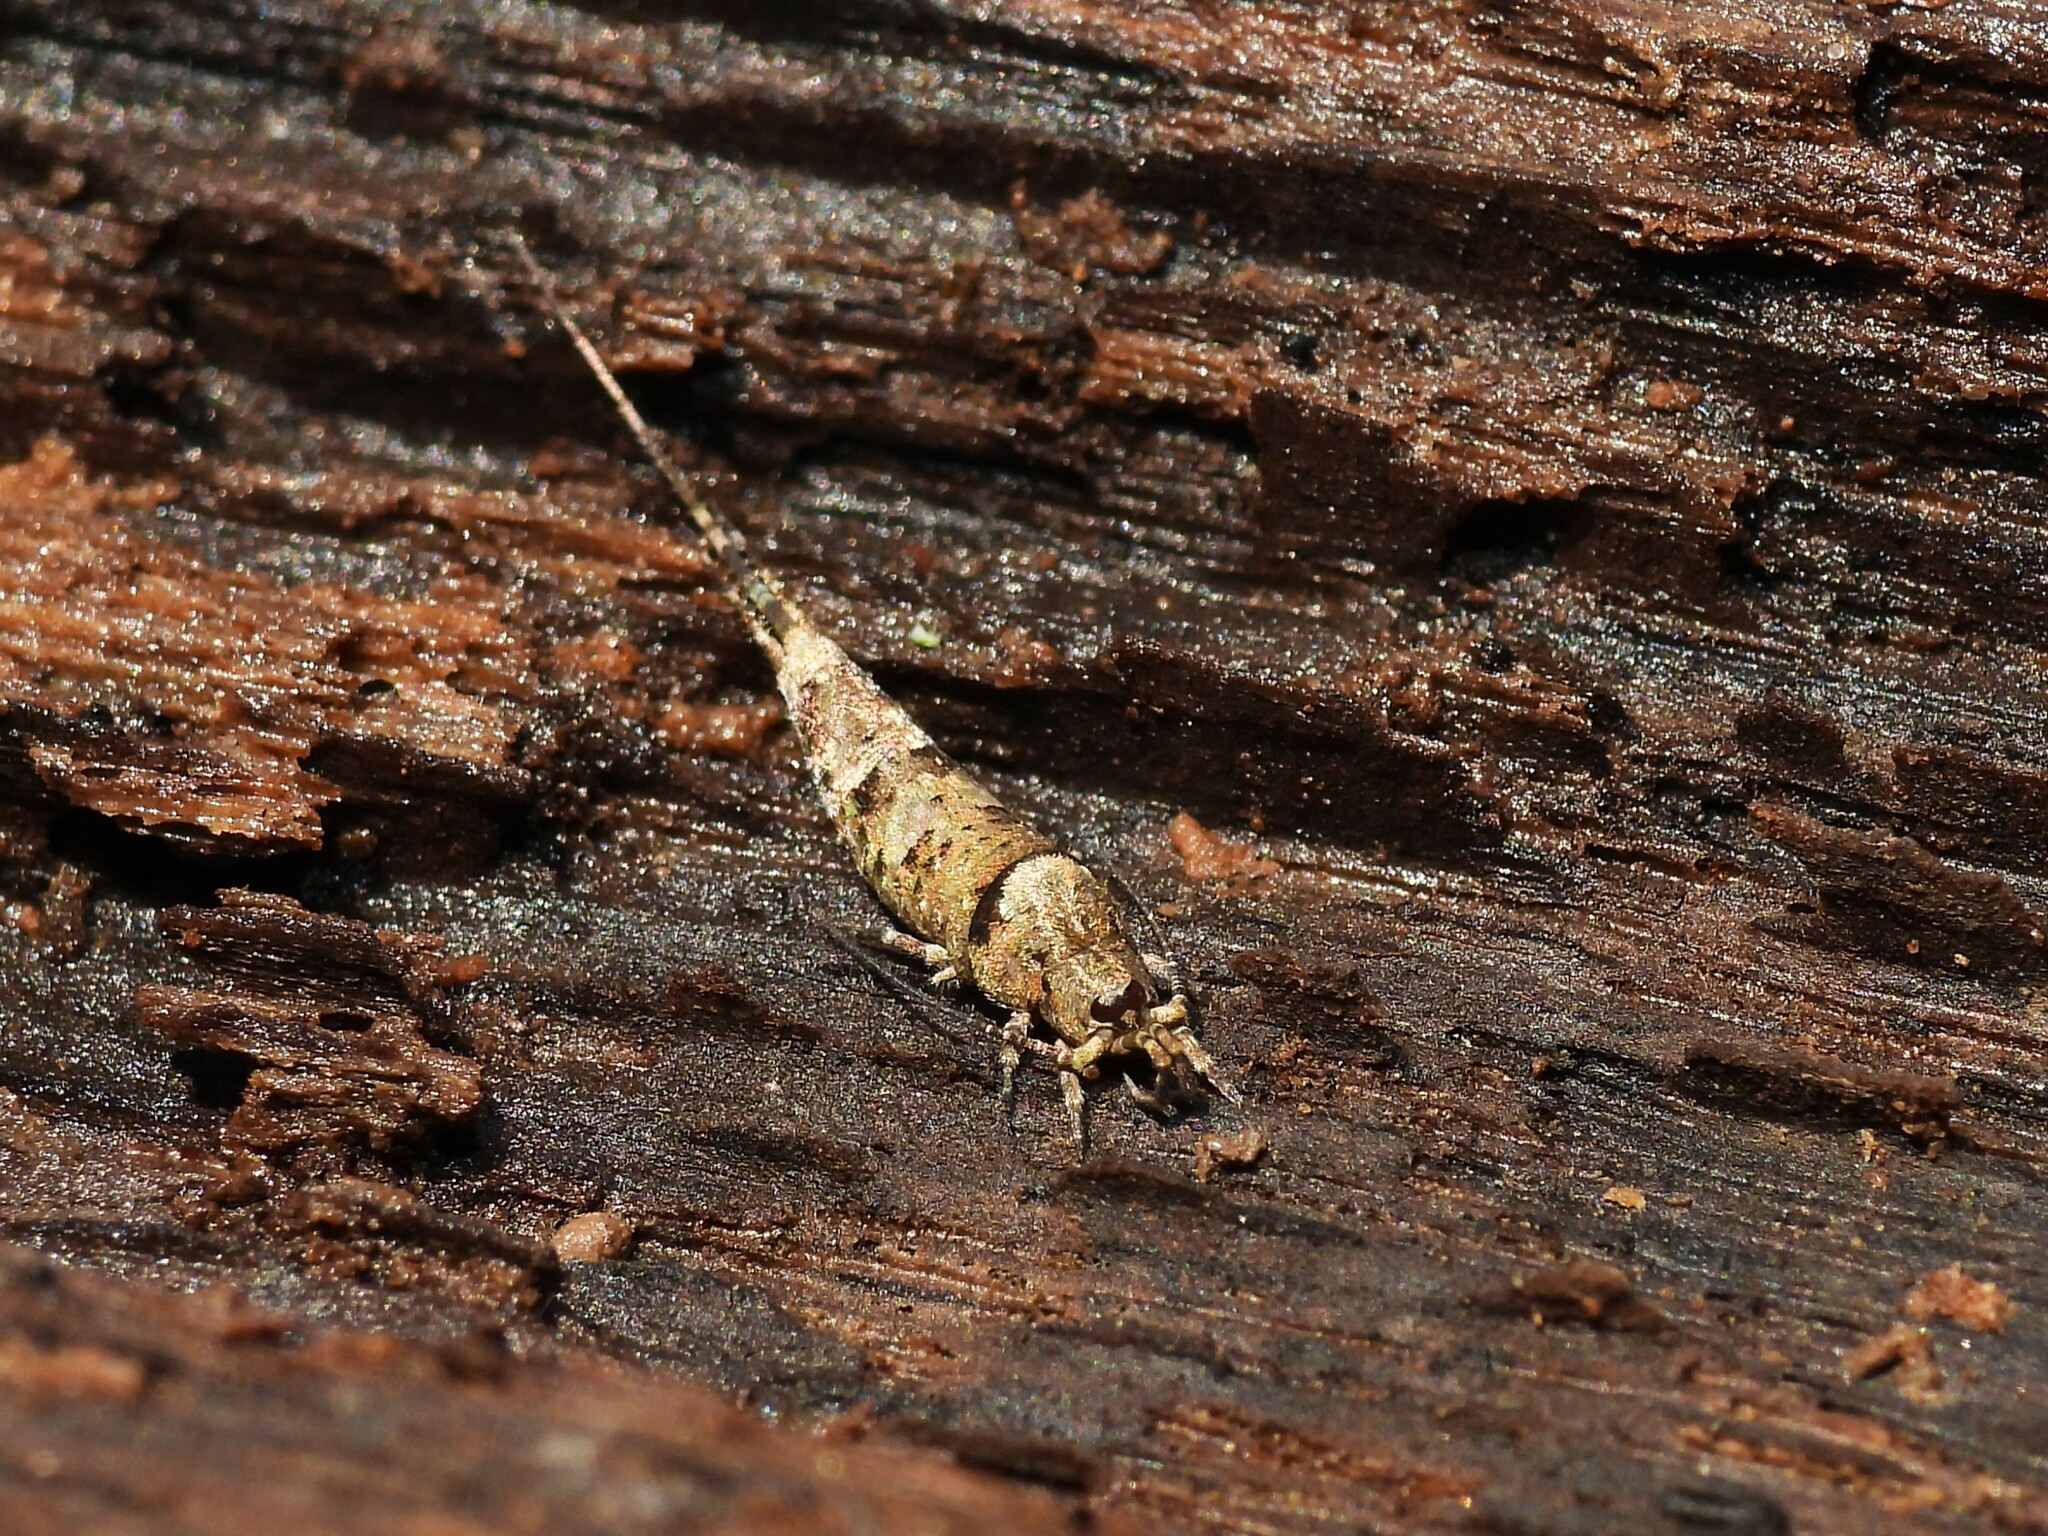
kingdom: Animalia
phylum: Arthropoda
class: Insecta
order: Archaeognatha
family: Machilidae
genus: Trigoniophthalmus
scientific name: Trigoniophthalmus alternatus
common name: Jumping bristletail
